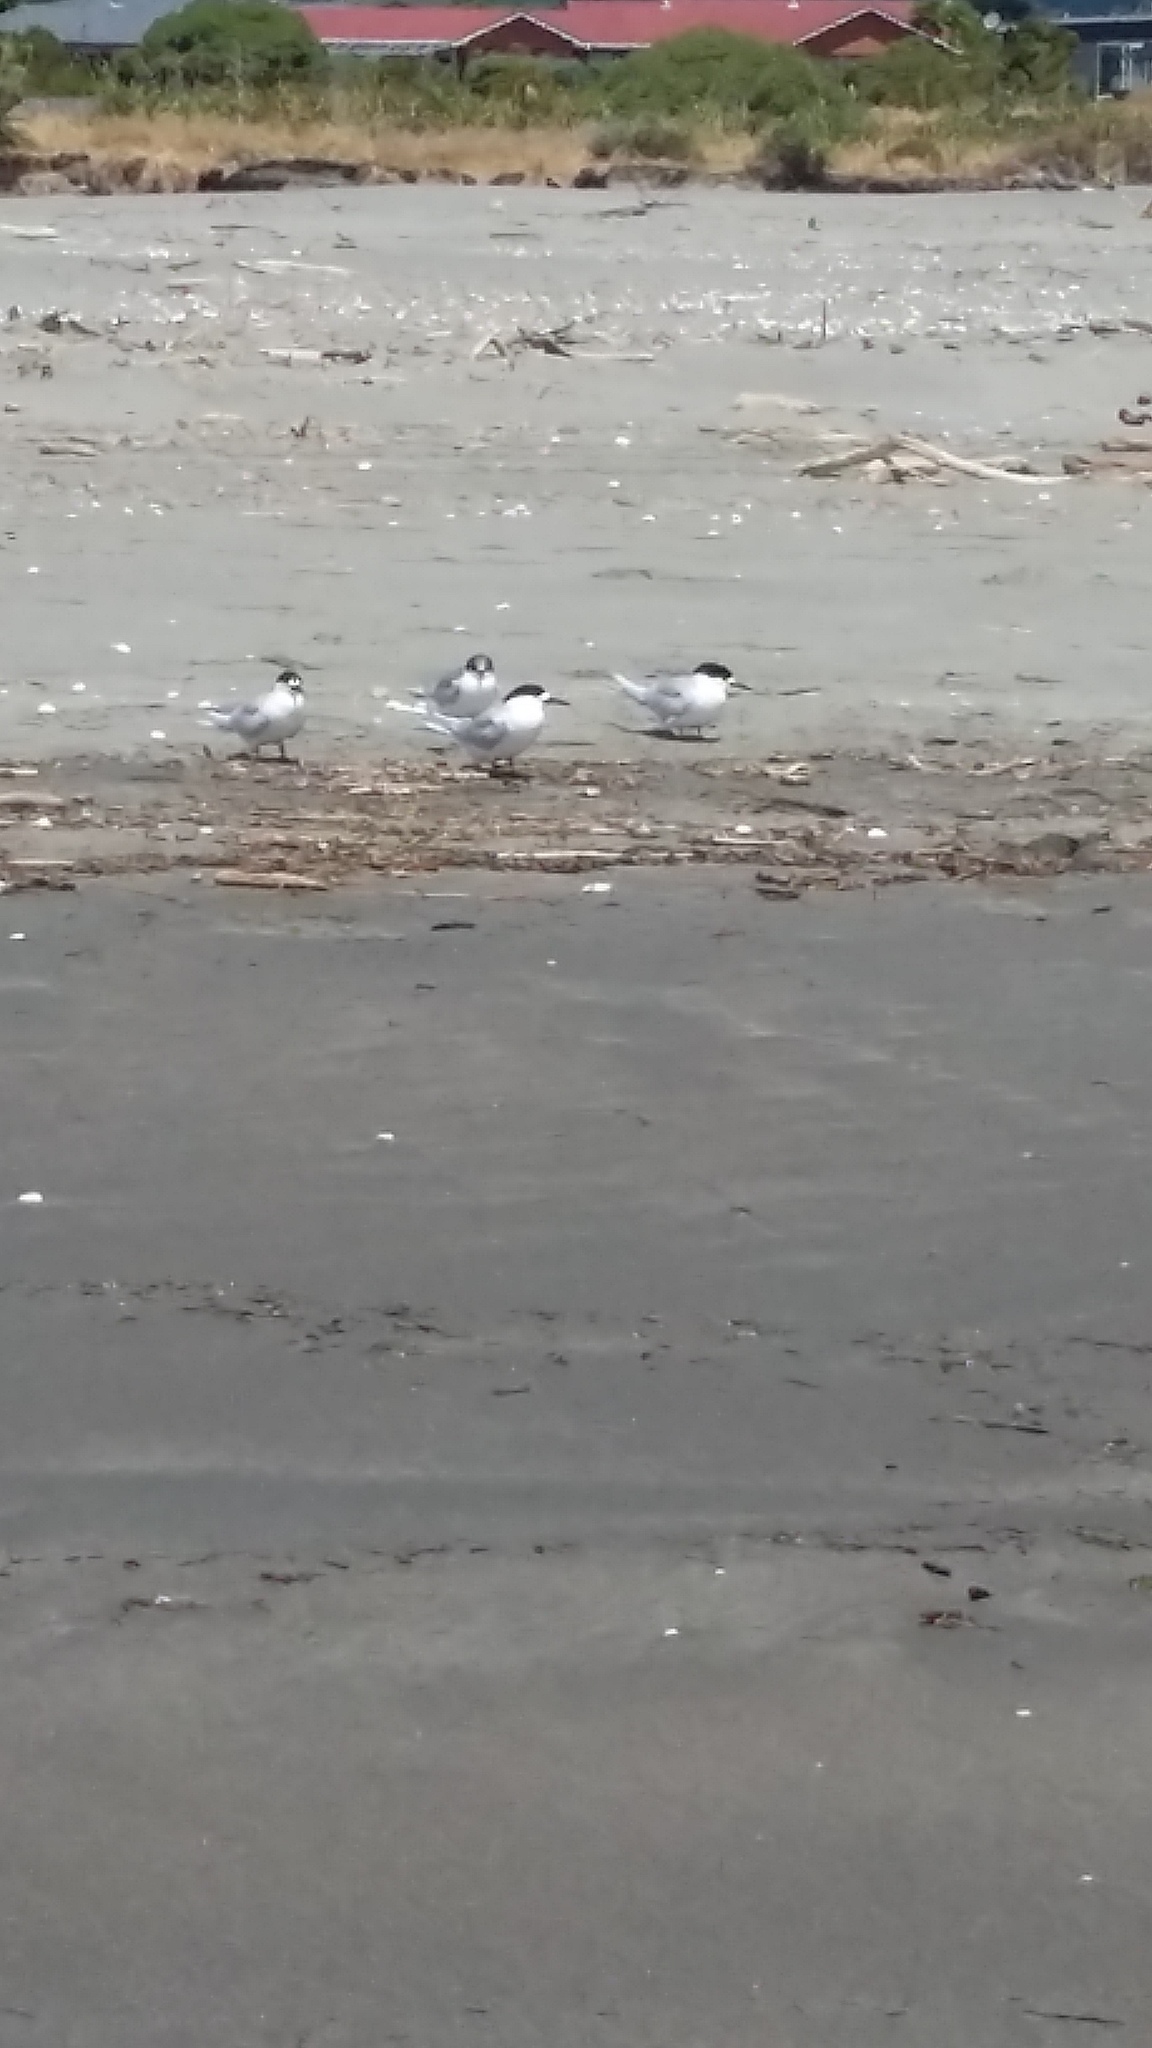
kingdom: Animalia
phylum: Chordata
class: Aves
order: Charadriiformes
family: Laridae
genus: Sterna
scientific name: Sterna striata
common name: White-fronted tern
